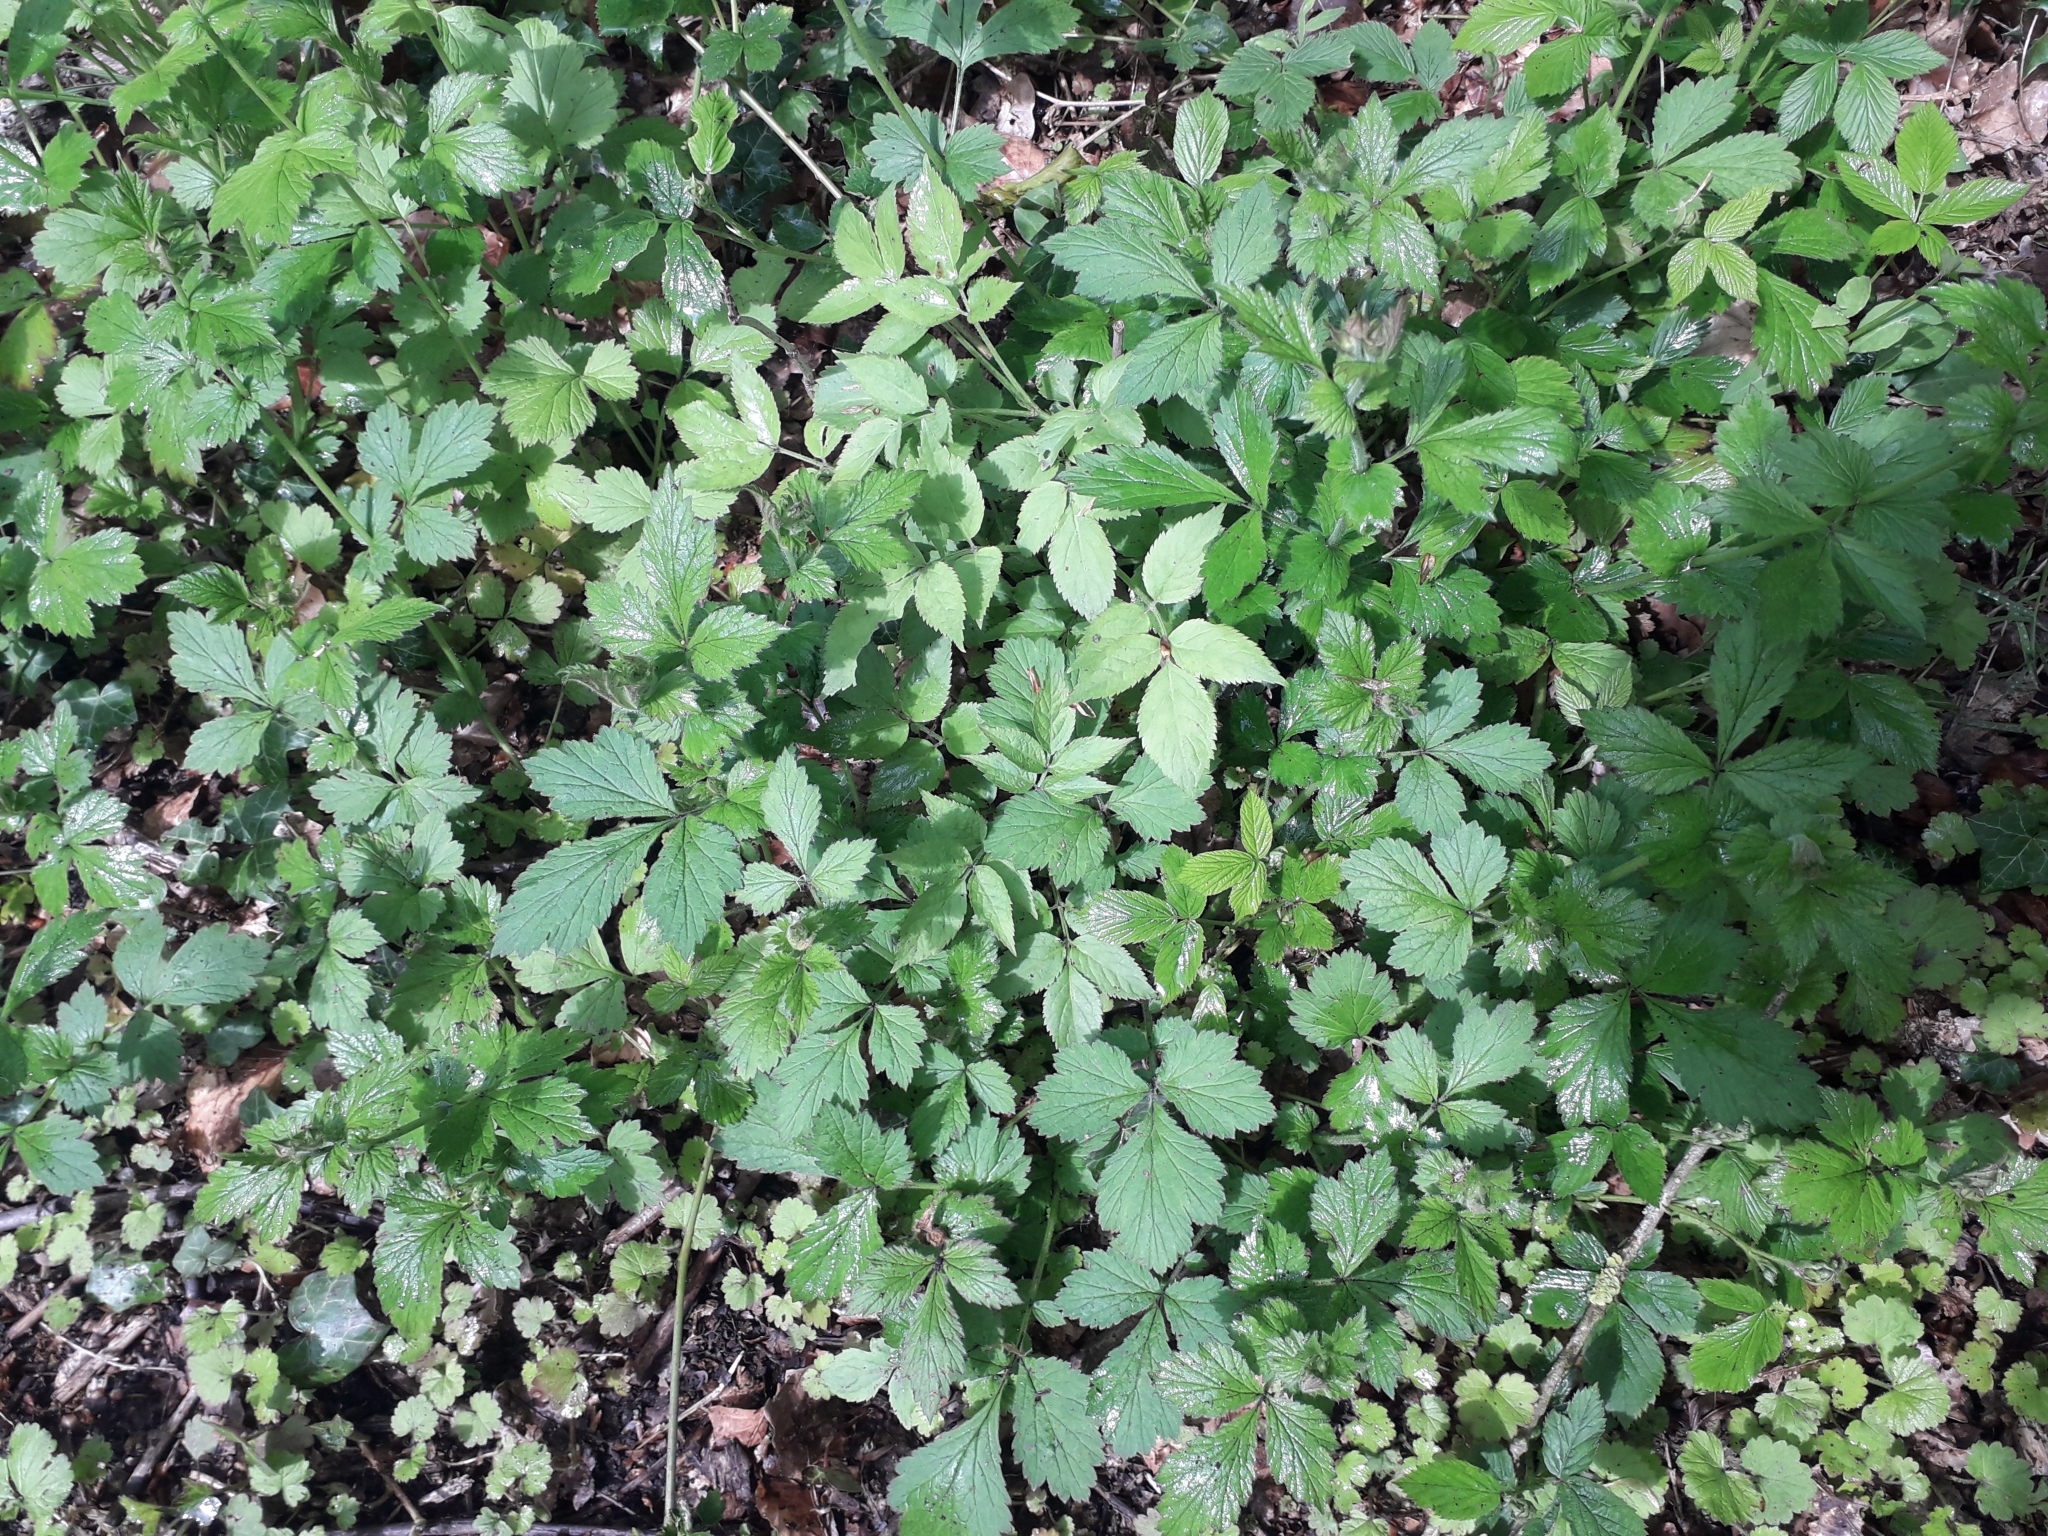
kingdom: Plantae
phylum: Tracheophyta
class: Magnoliopsida
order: Rosales
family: Rosaceae
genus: Geum
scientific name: Geum urbanum
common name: Wood avens
